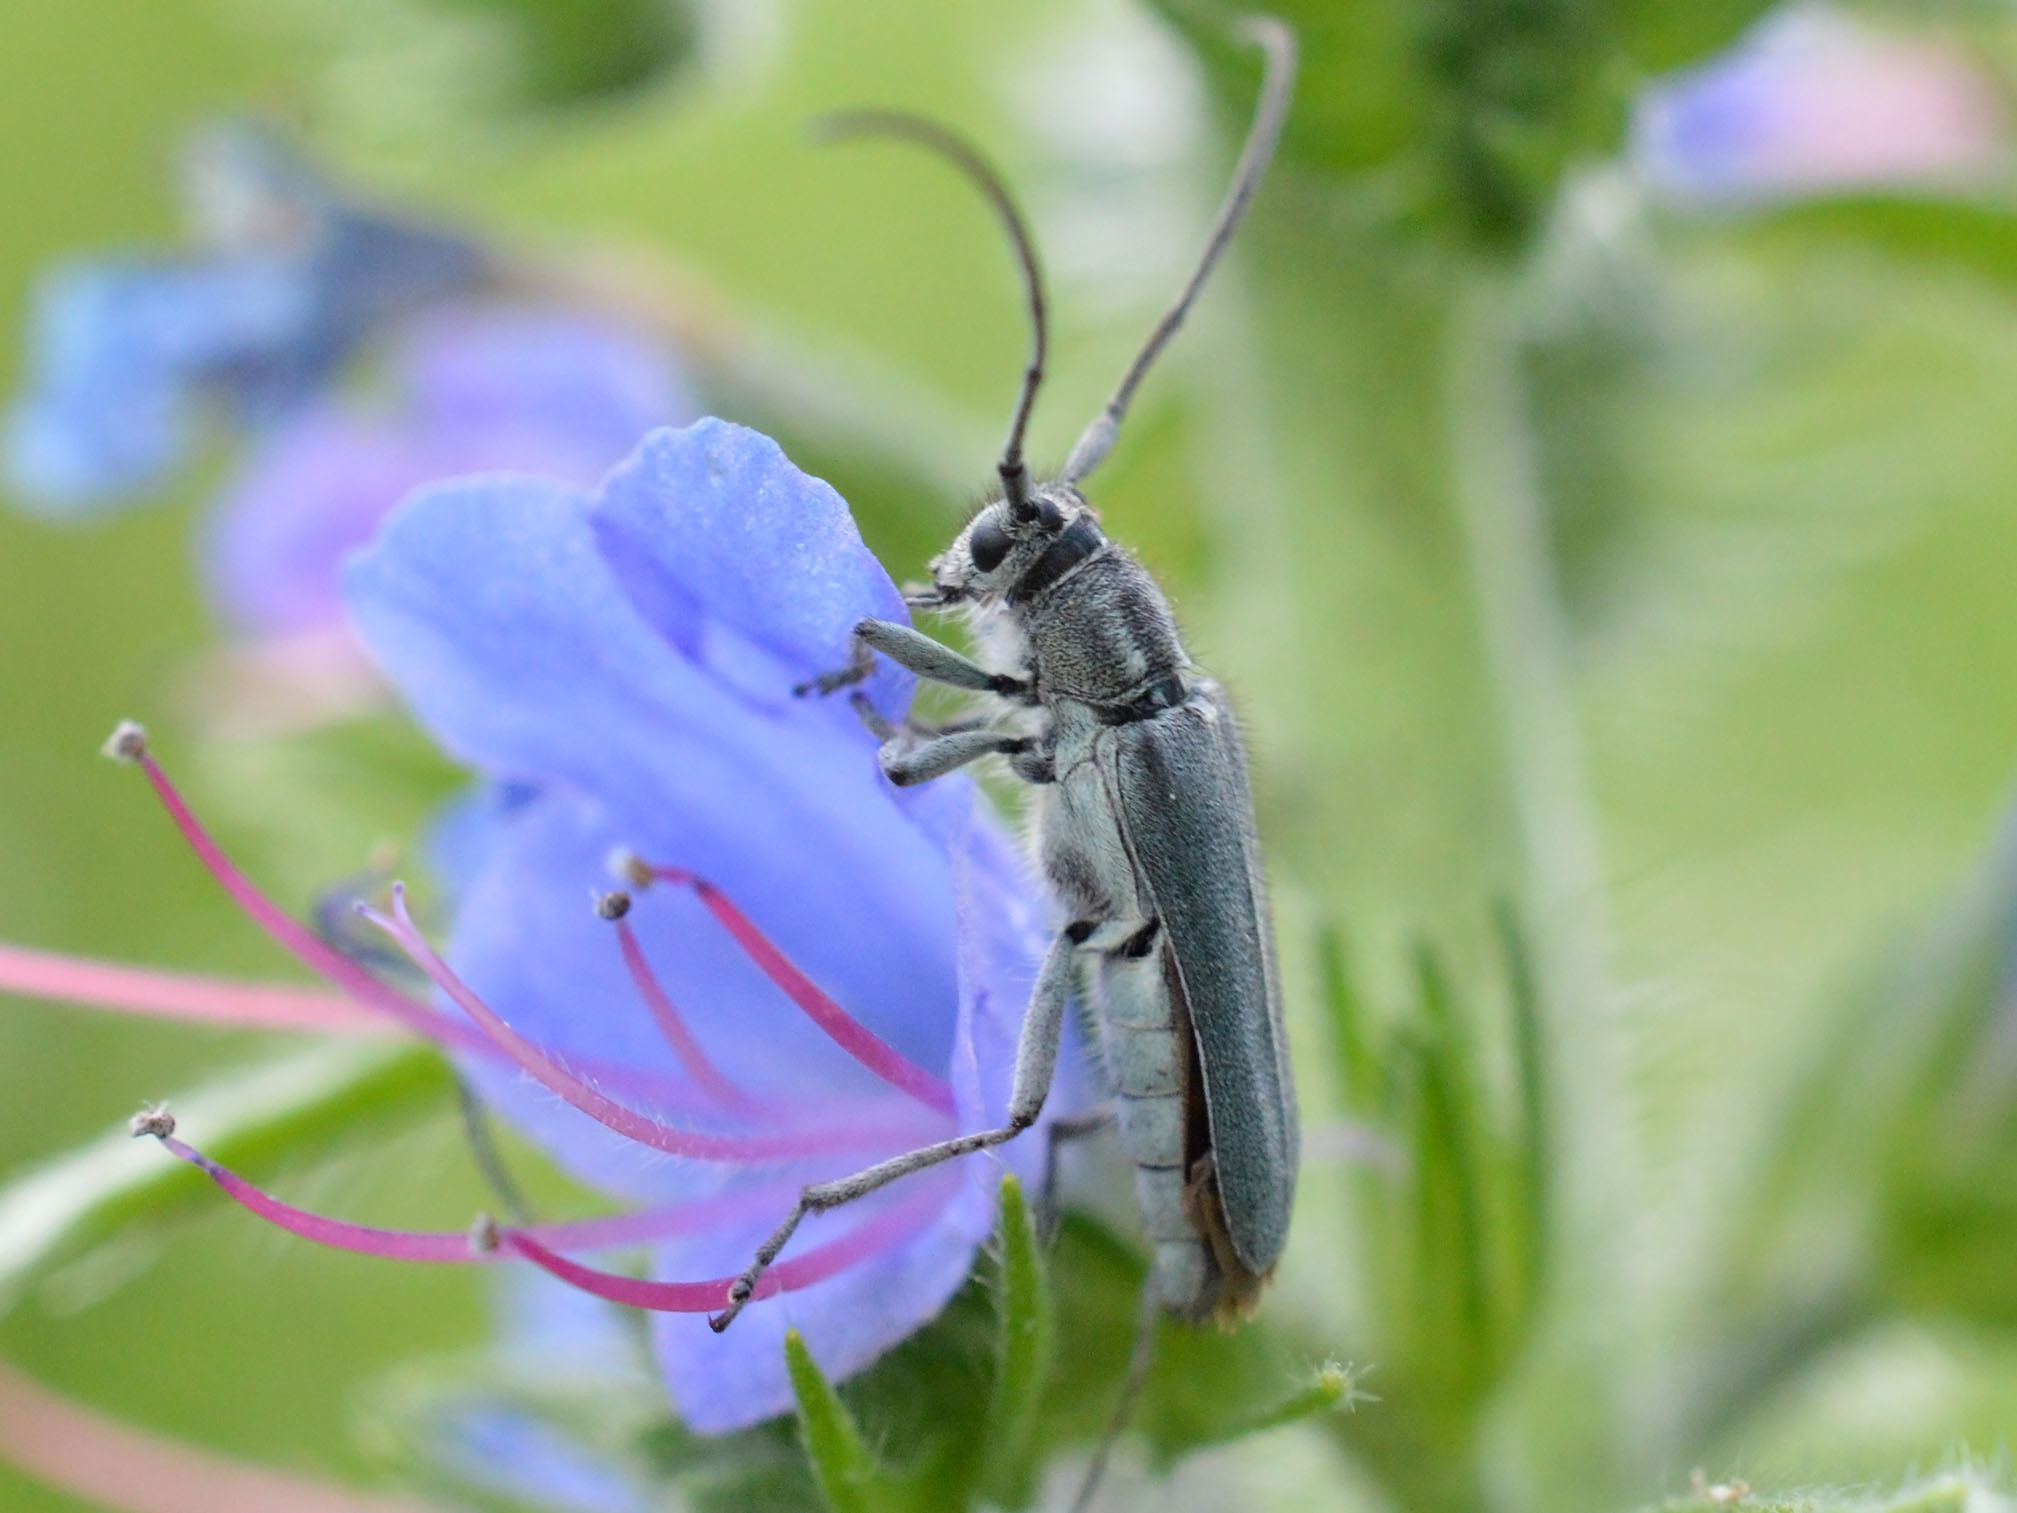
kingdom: Animalia
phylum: Arthropoda
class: Insecta
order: Coleoptera
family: Cerambycidae
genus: Phytoecia
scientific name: Phytoecia coerulescens
